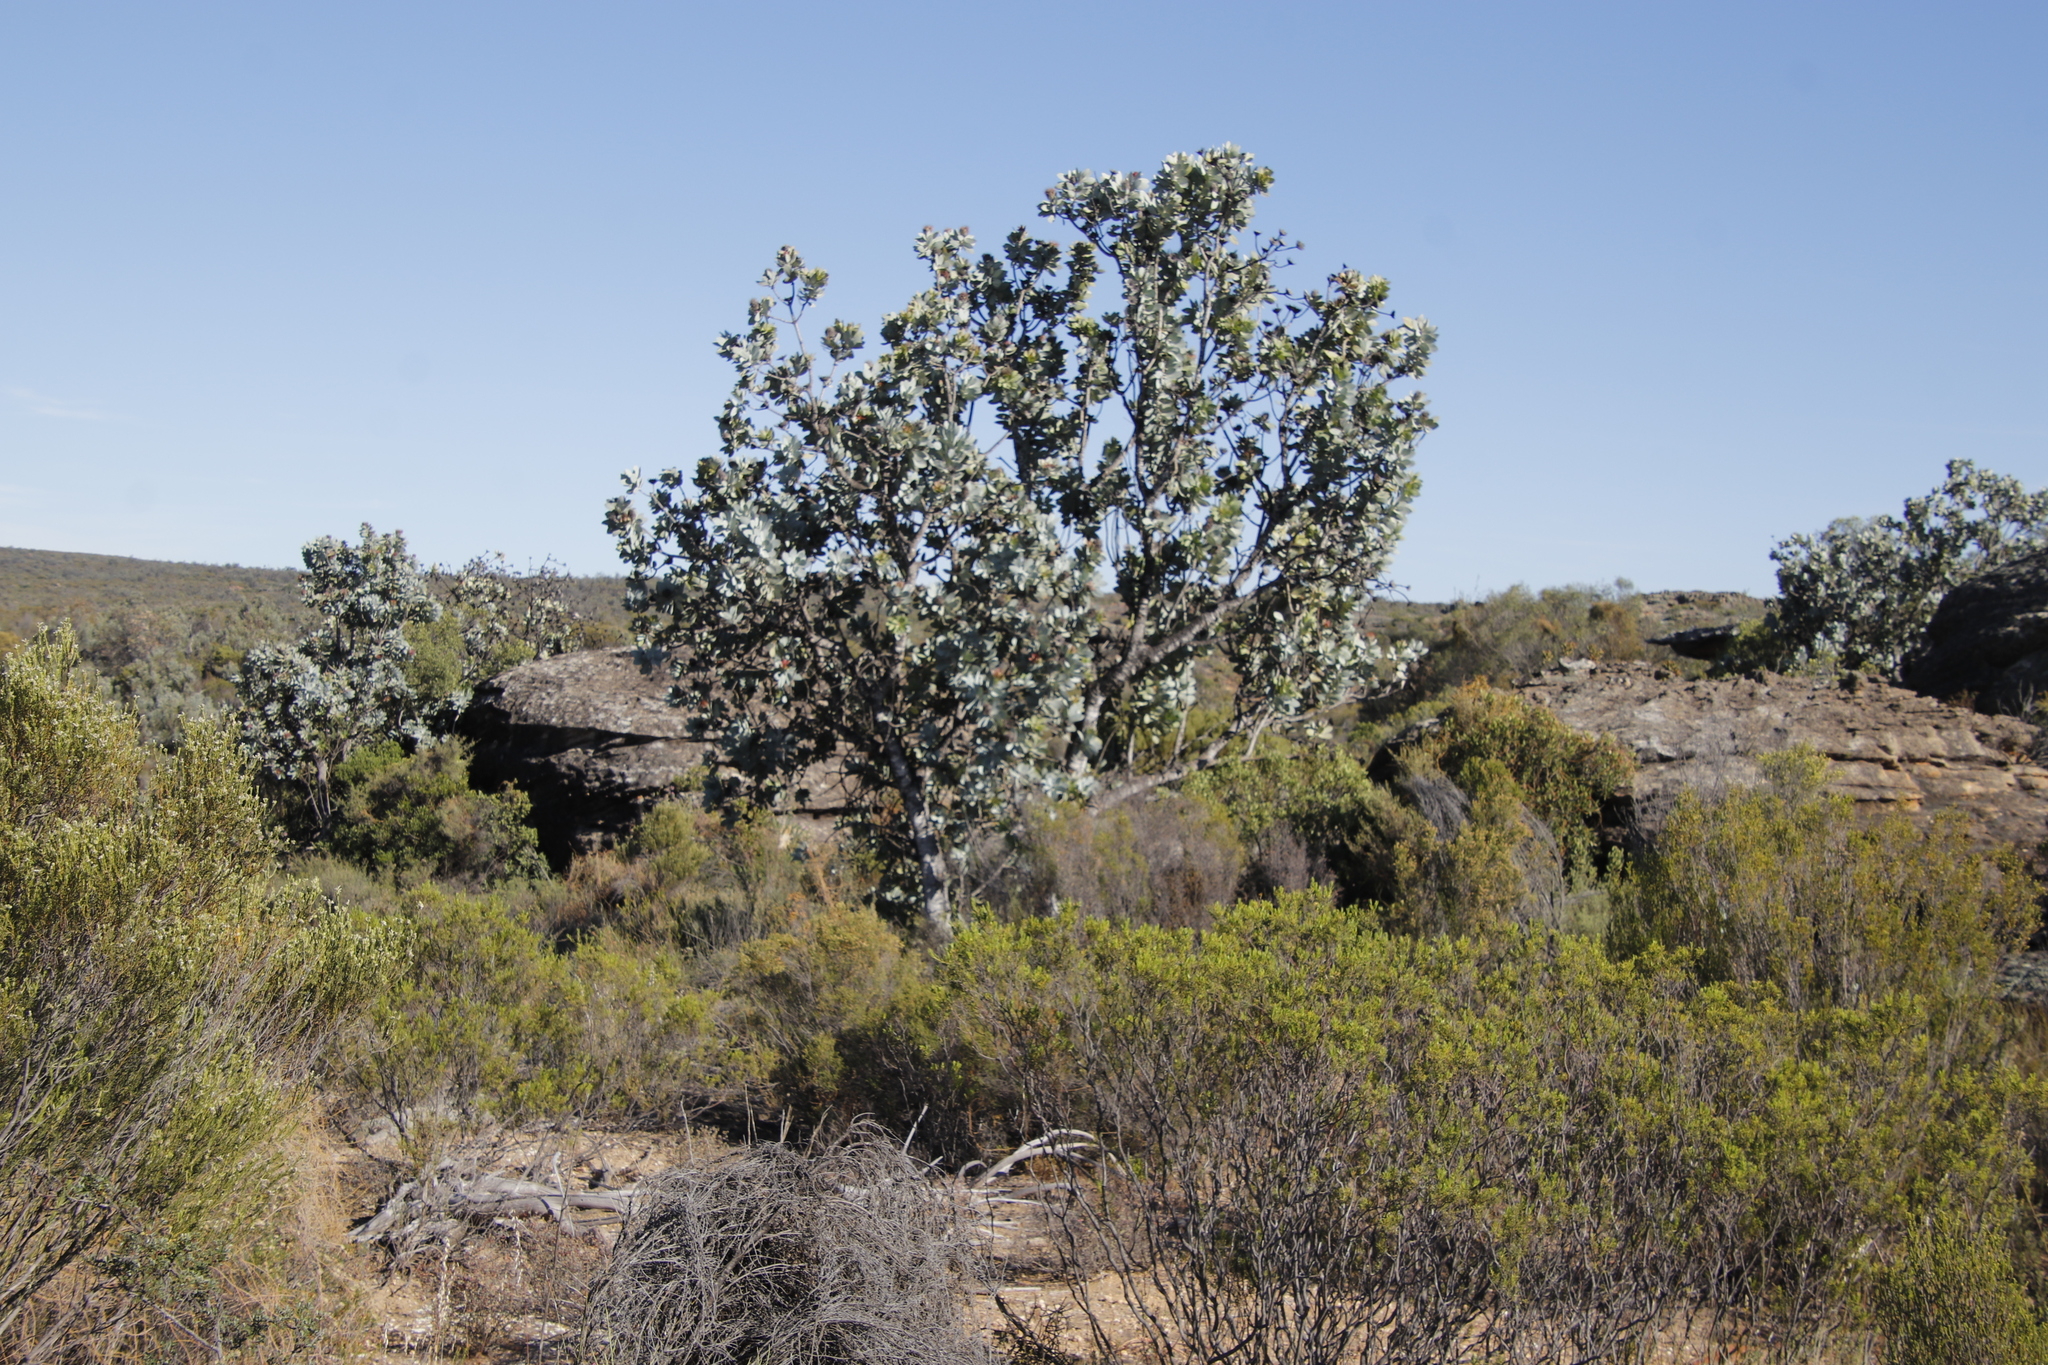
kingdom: Plantae
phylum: Tracheophyta
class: Magnoliopsida
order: Proteales
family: Proteaceae
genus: Protea
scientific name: Protea nitida
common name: Tree protea
